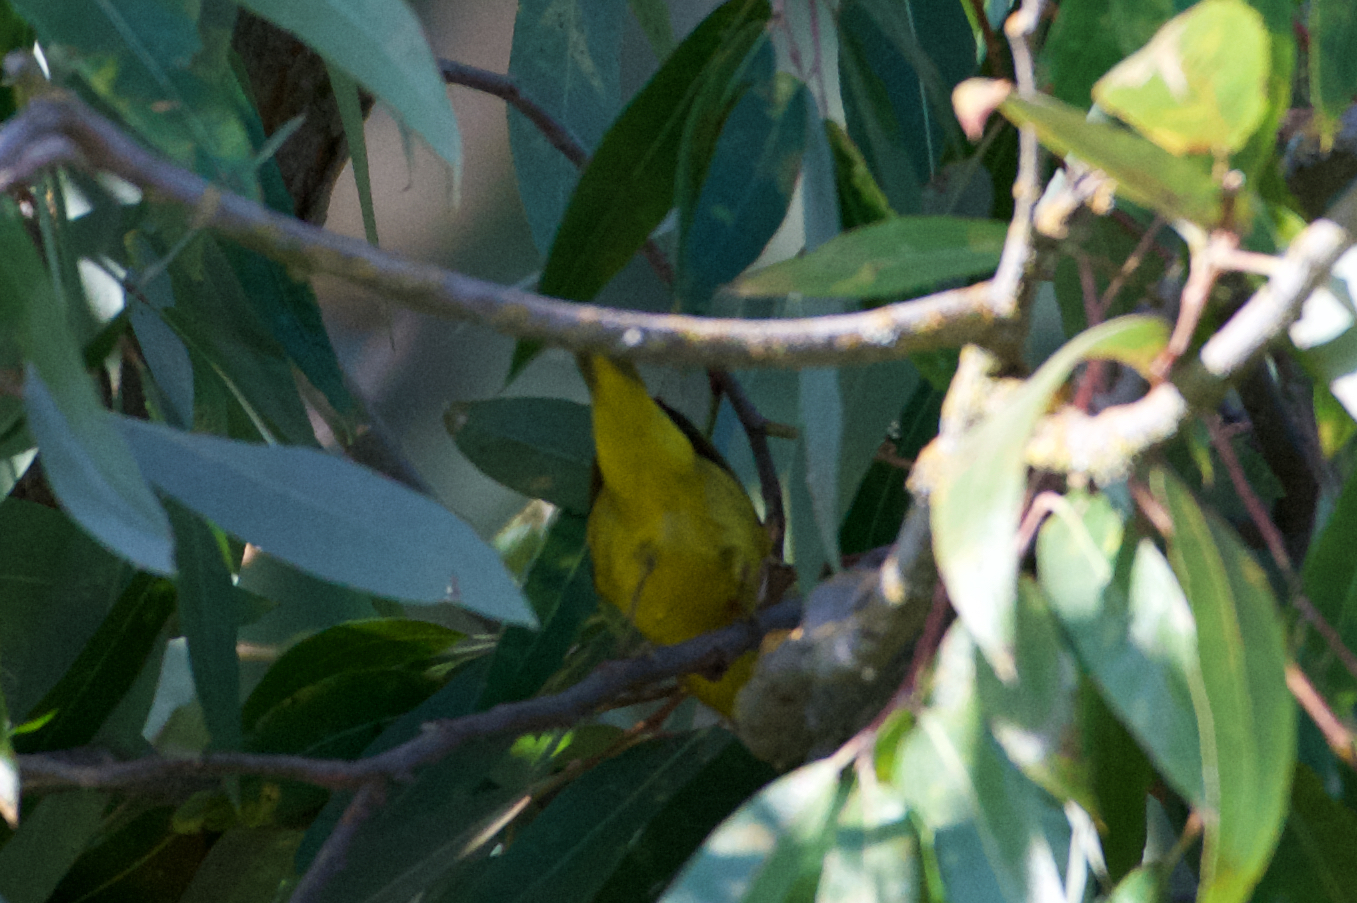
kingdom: Animalia
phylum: Chordata
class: Aves
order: Passeriformes
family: Parulidae
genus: Setophaga
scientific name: Setophaga petechia
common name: Yellow warbler
